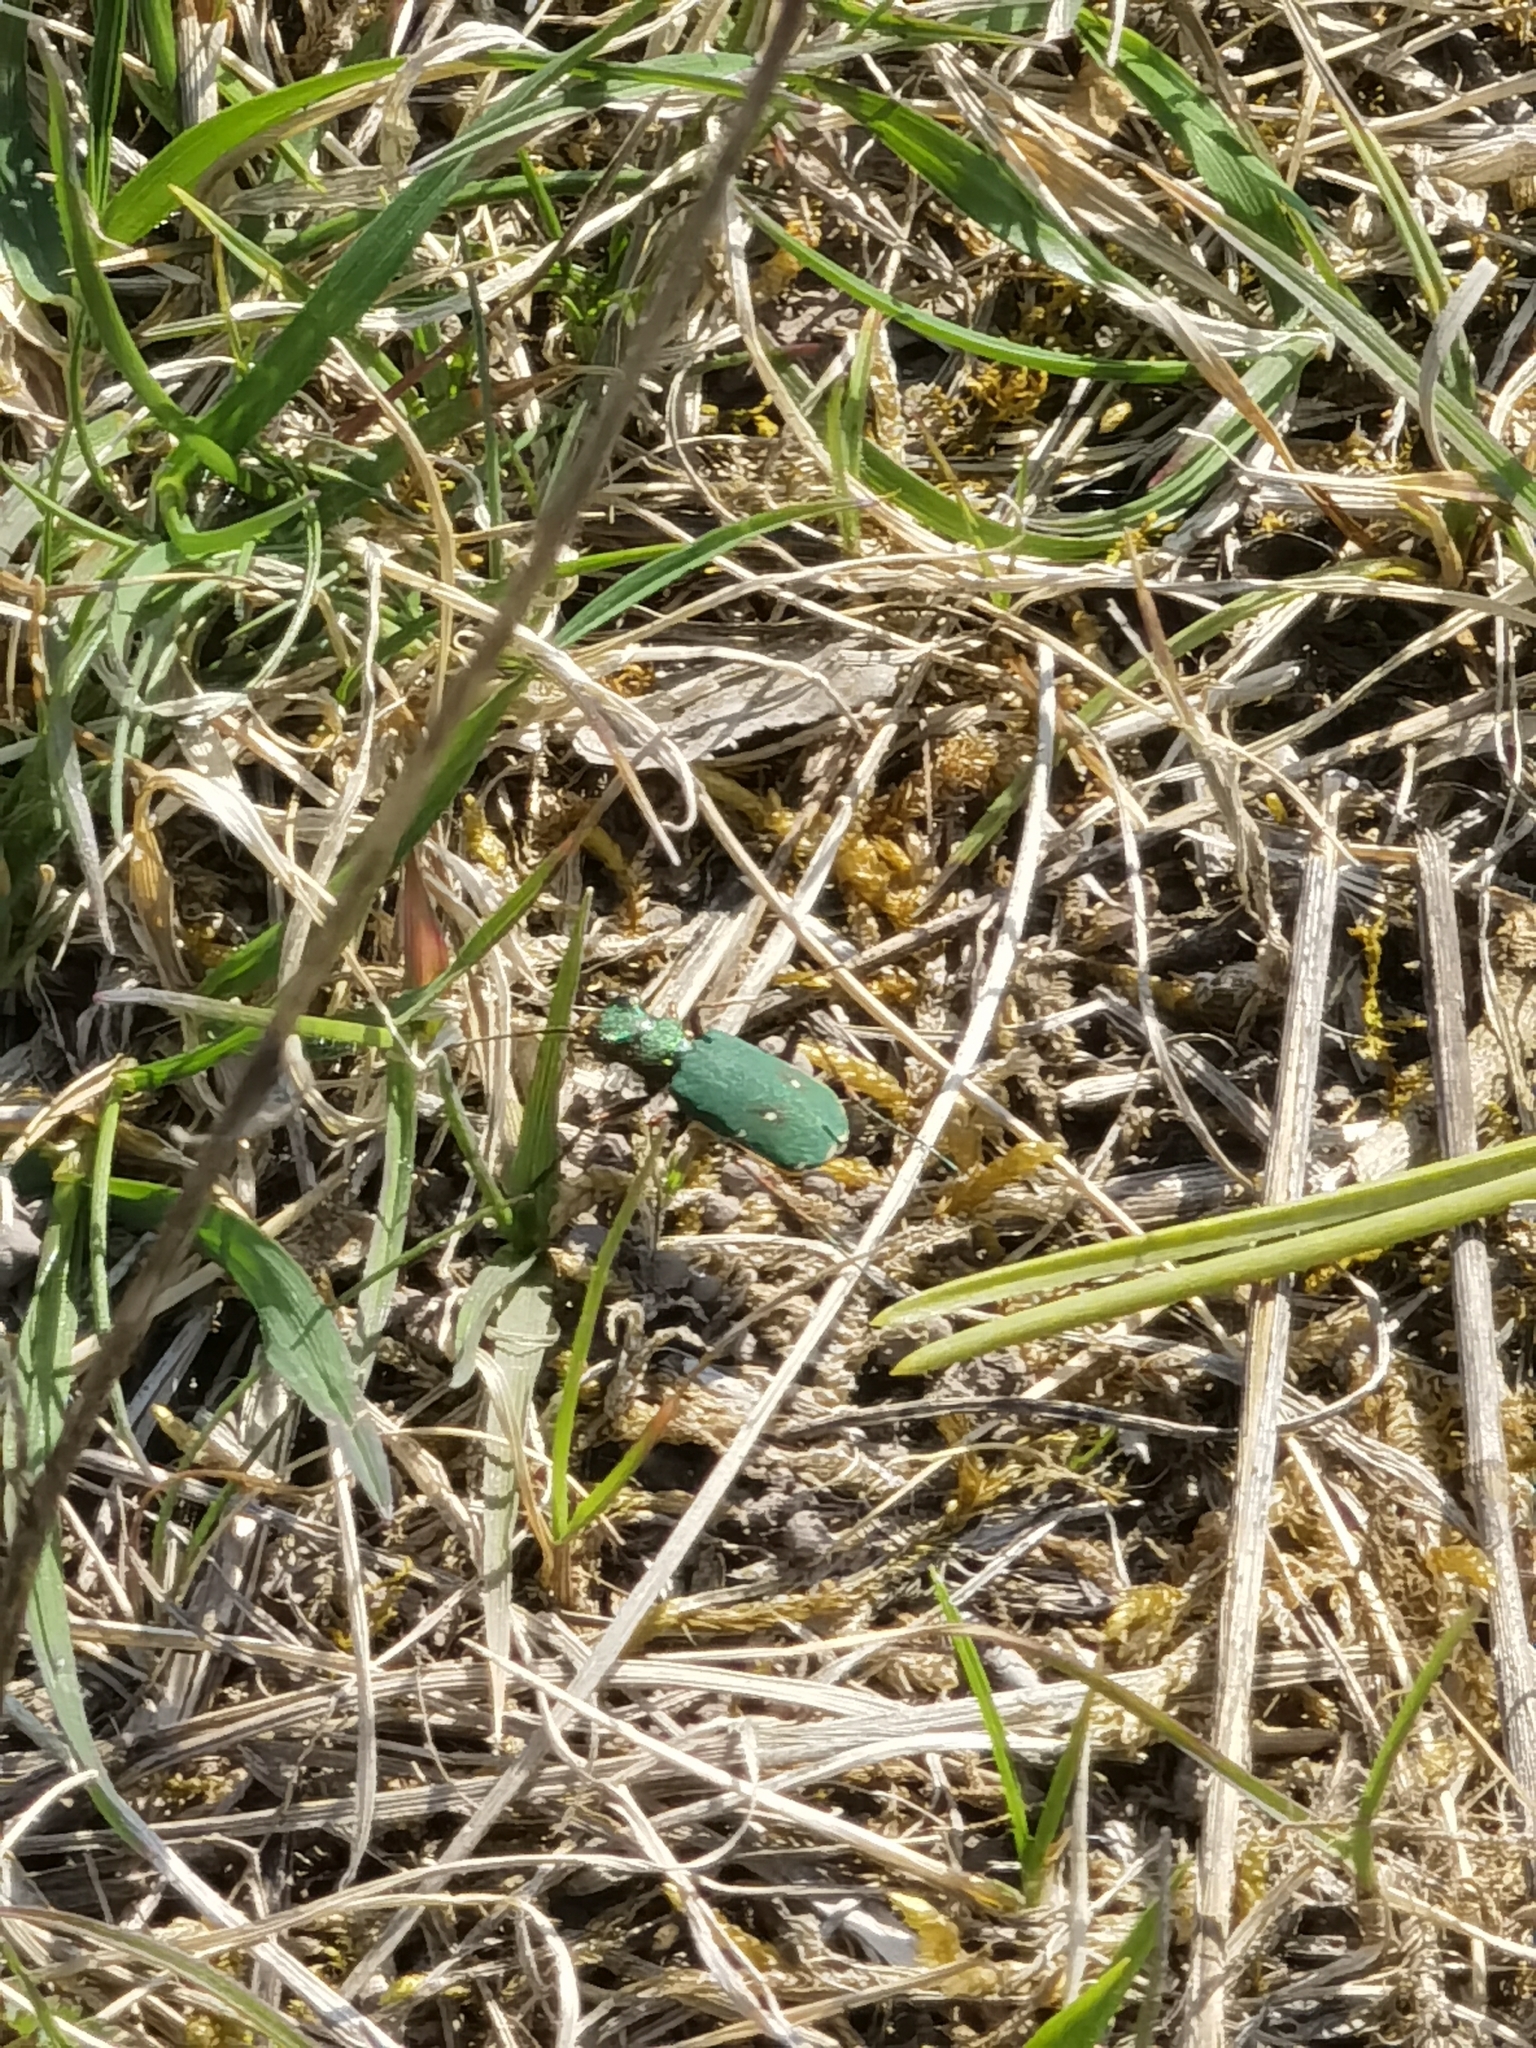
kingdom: Animalia
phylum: Arthropoda
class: Insecta
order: Coleoptera
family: Carabidae
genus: Cicindela
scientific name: Cicindela campestris
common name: Common tiger beetle
